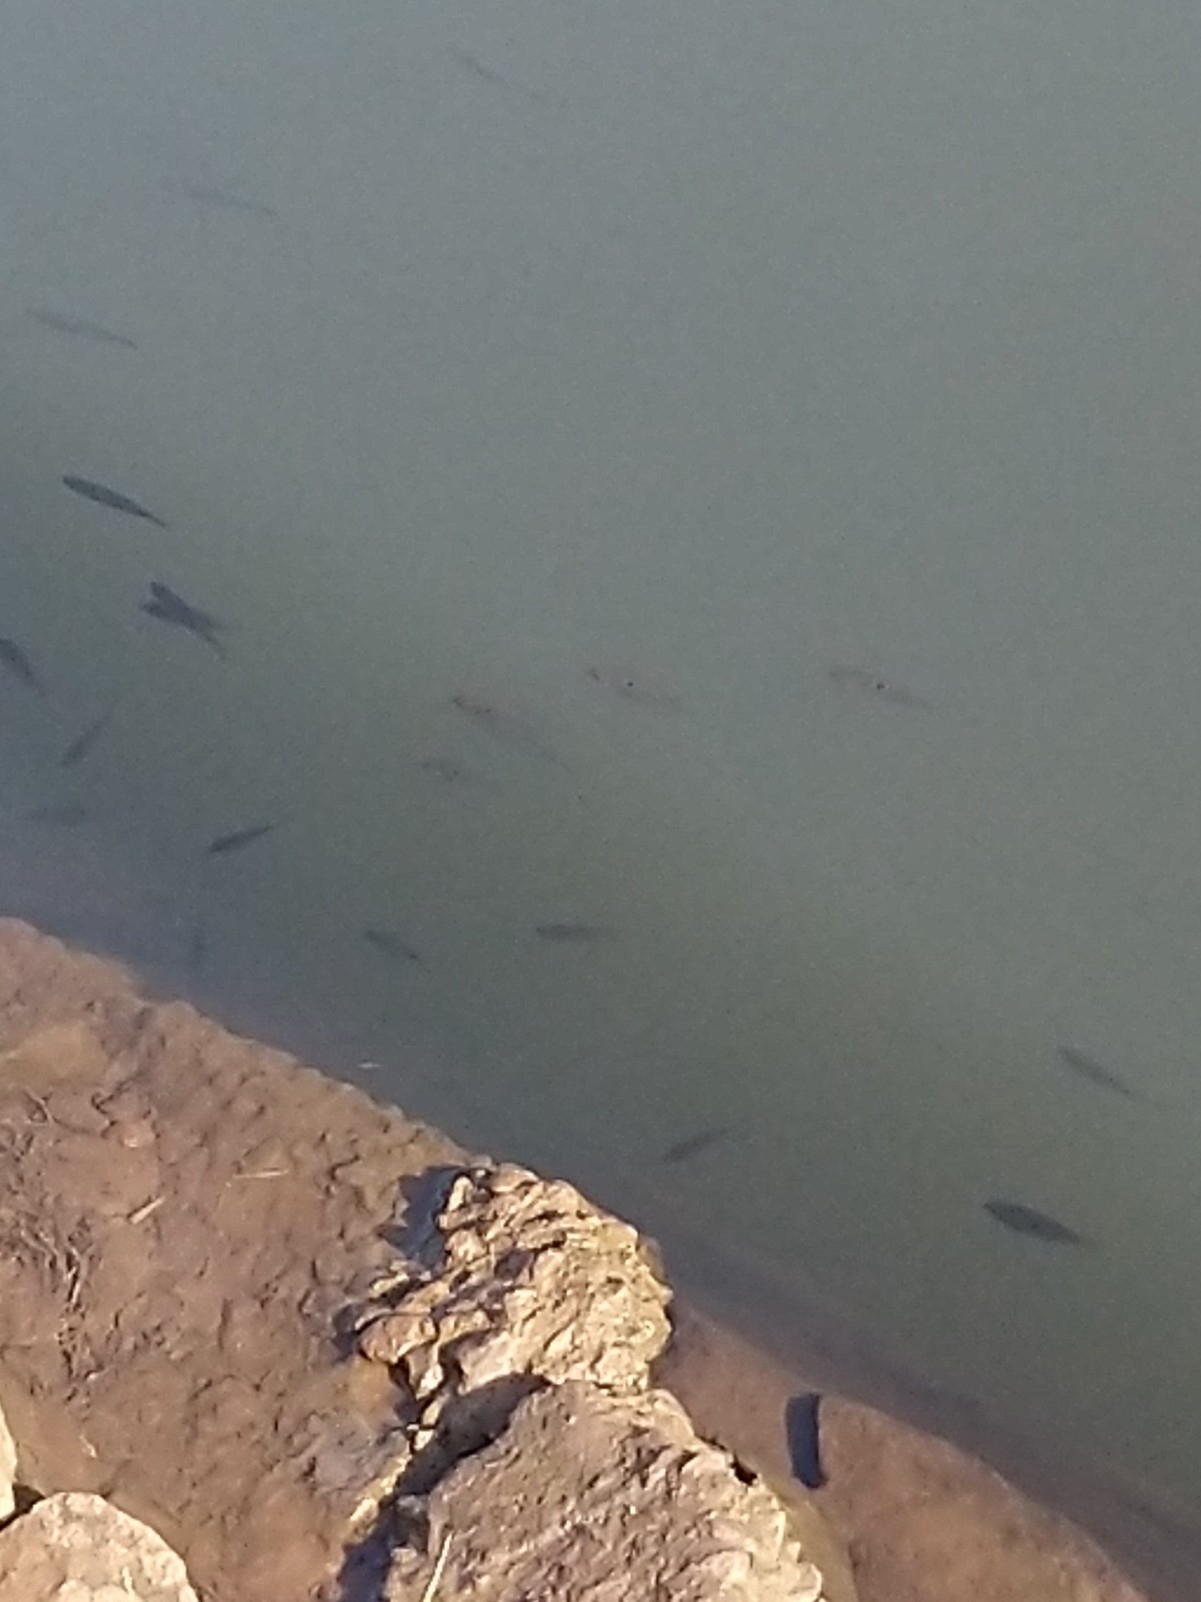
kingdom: Animalia
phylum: Chordata
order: Perciformes
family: Cichlidae
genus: Etroplus
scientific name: Etroplus maculatus
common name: Orange chromide
